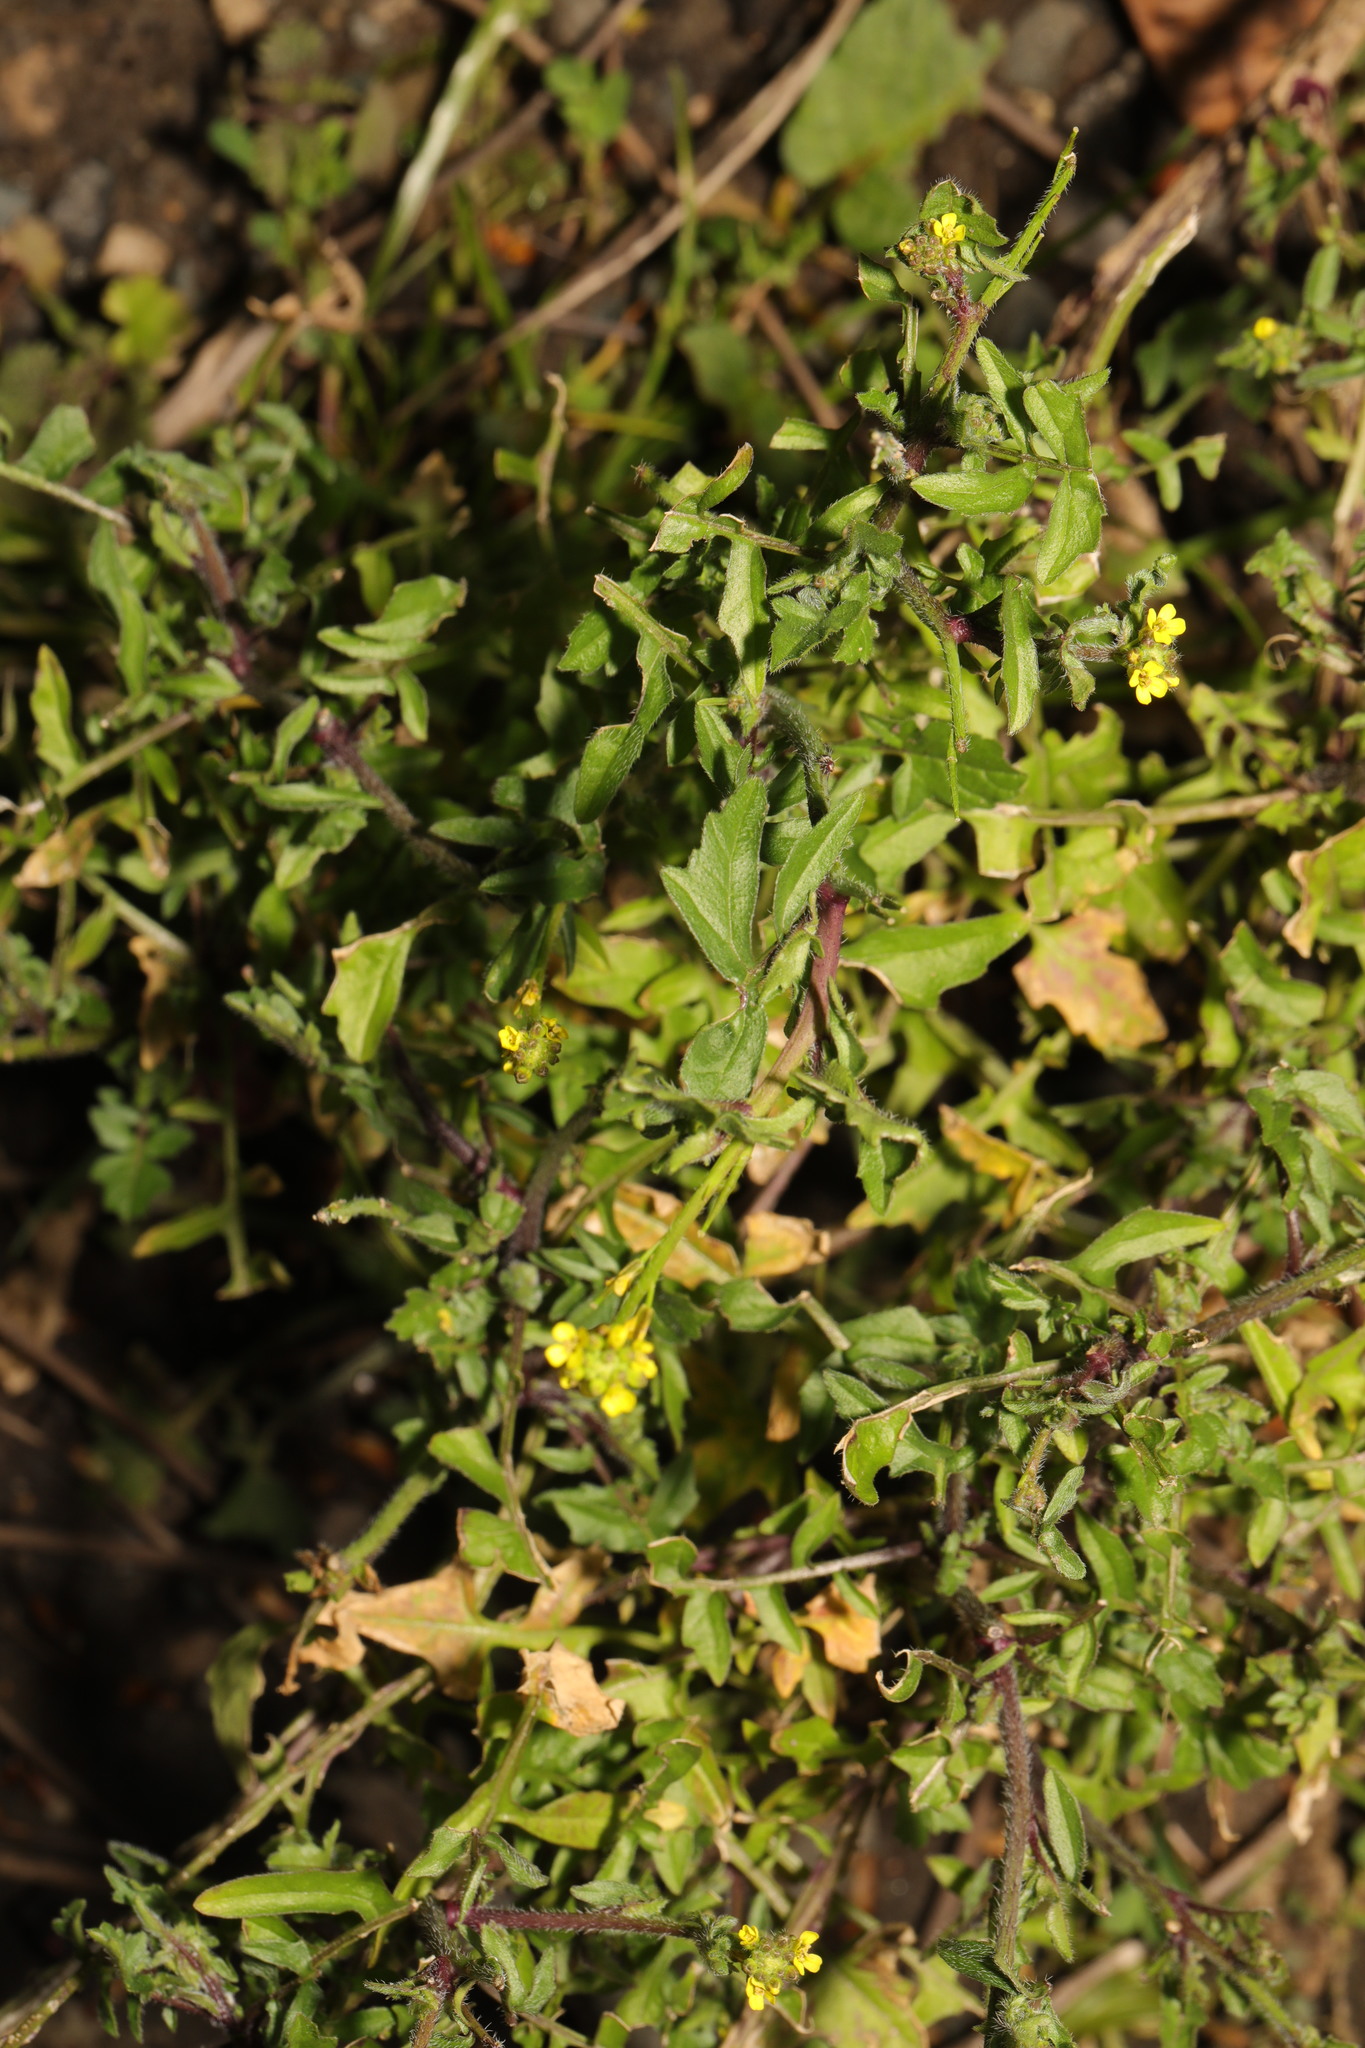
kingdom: Plantae
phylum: Tracheophyta
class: Magnoliopsida
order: Brassicales
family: Brassicaceae
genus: Sisymbrium
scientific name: Sisymbrium officinale
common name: Hedge mustard
